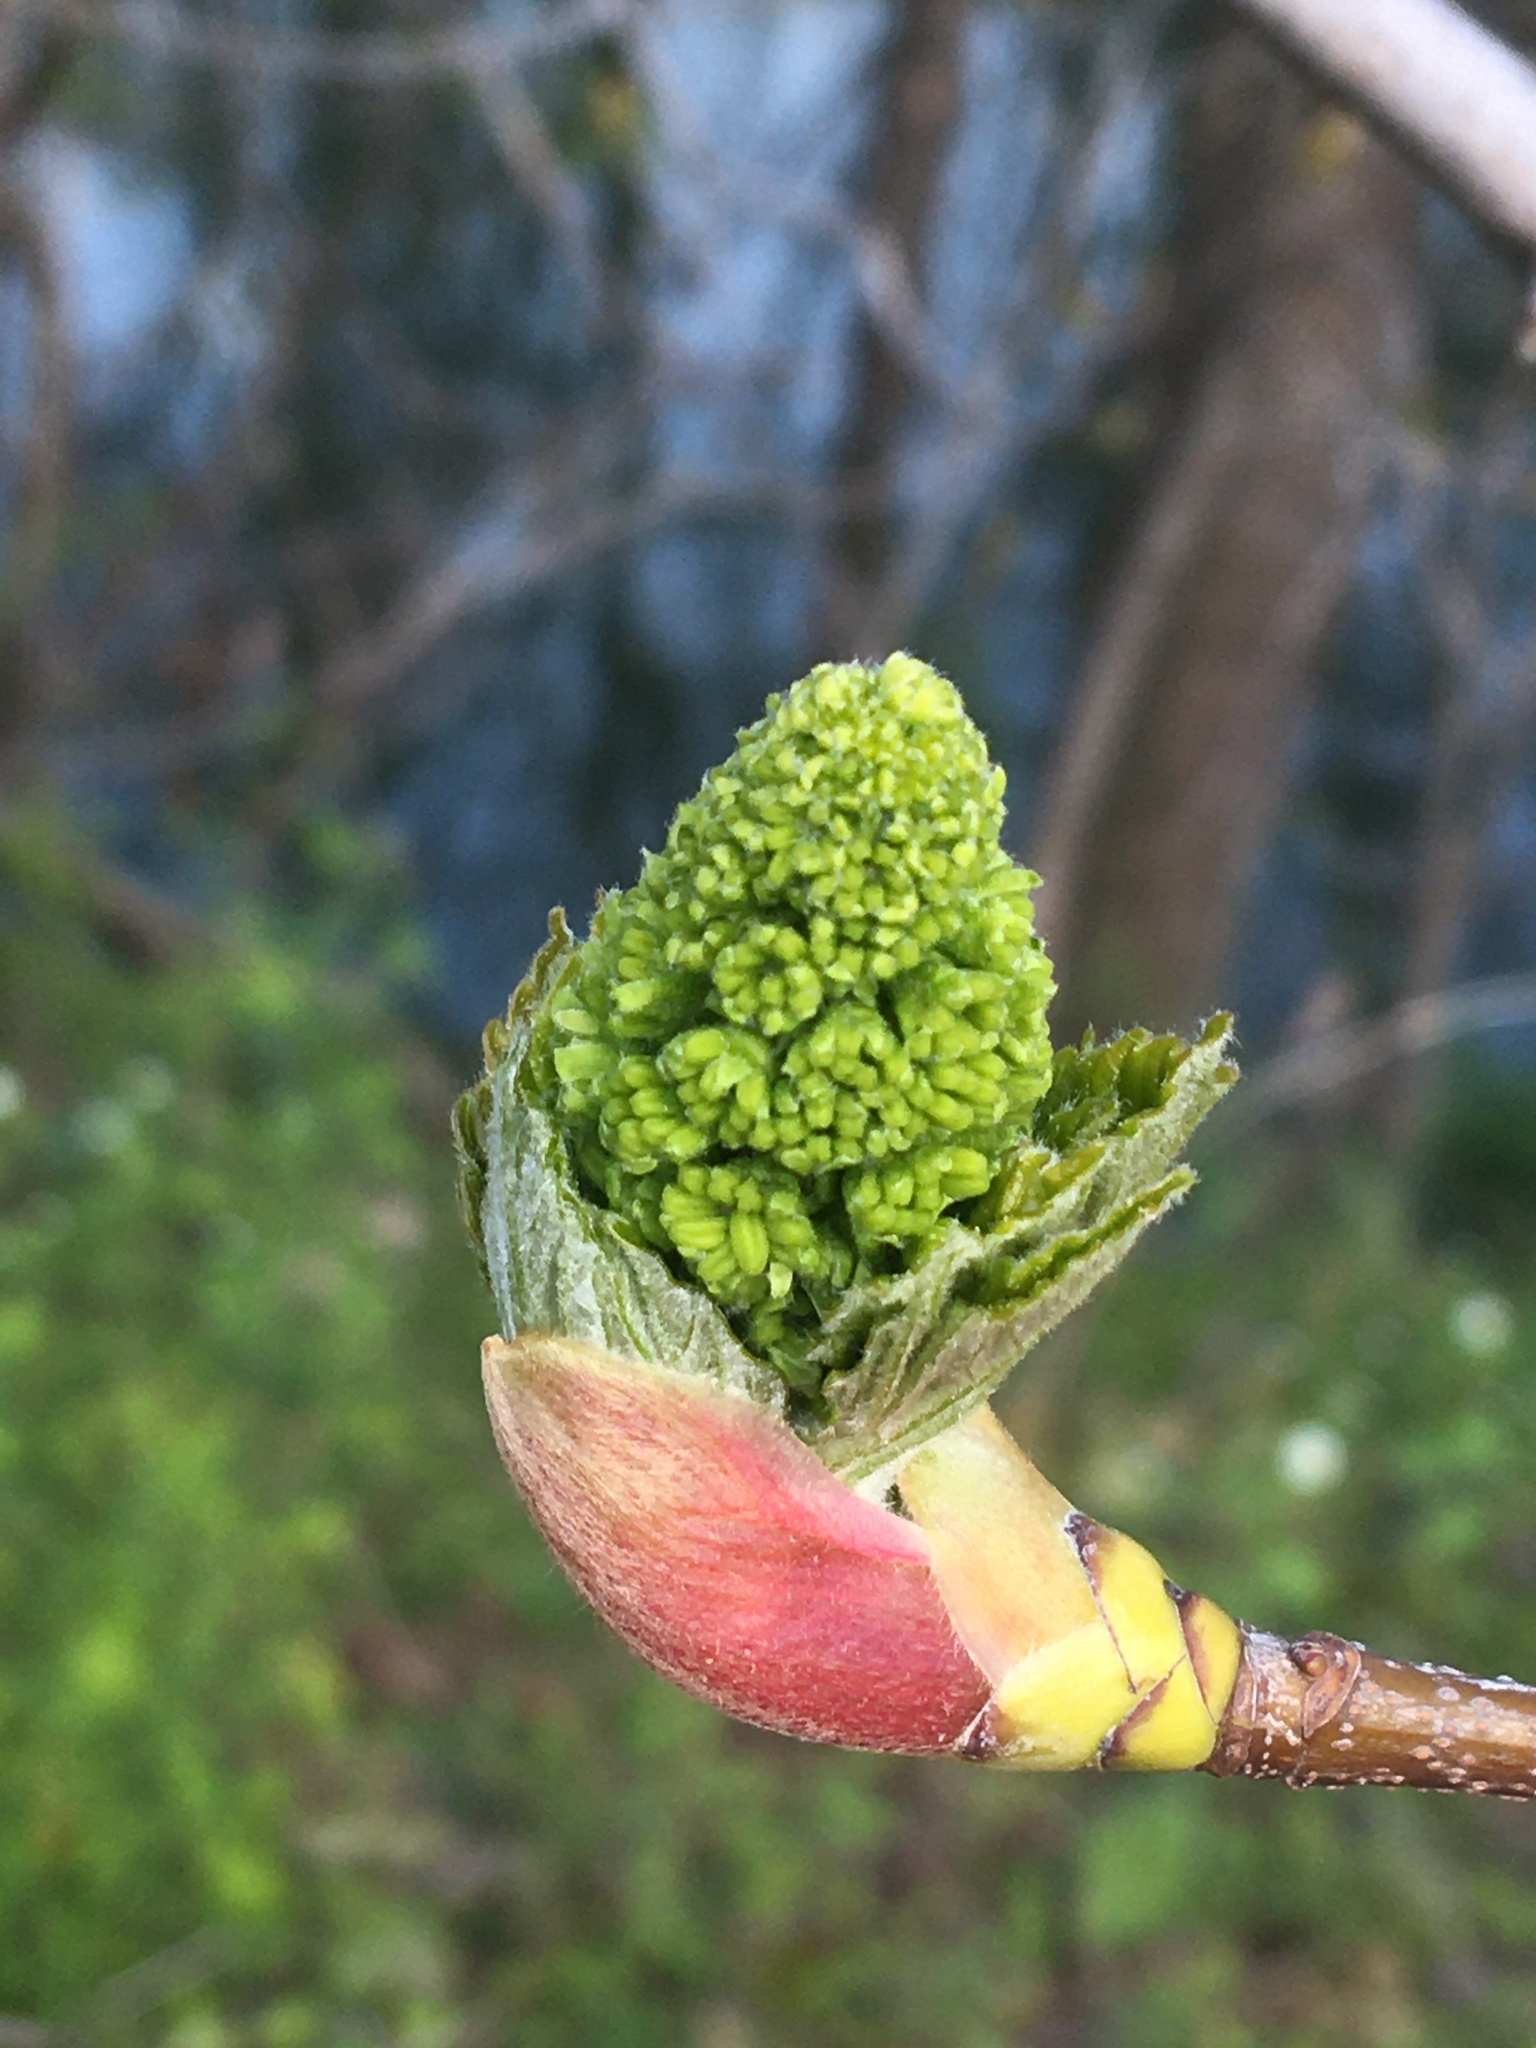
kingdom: Plantae
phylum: Tracheophyta
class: Magnoliopsida
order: Sapindales
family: Sapindaceae
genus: Acer
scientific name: Acer pseudoplatanus
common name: Sycamore
